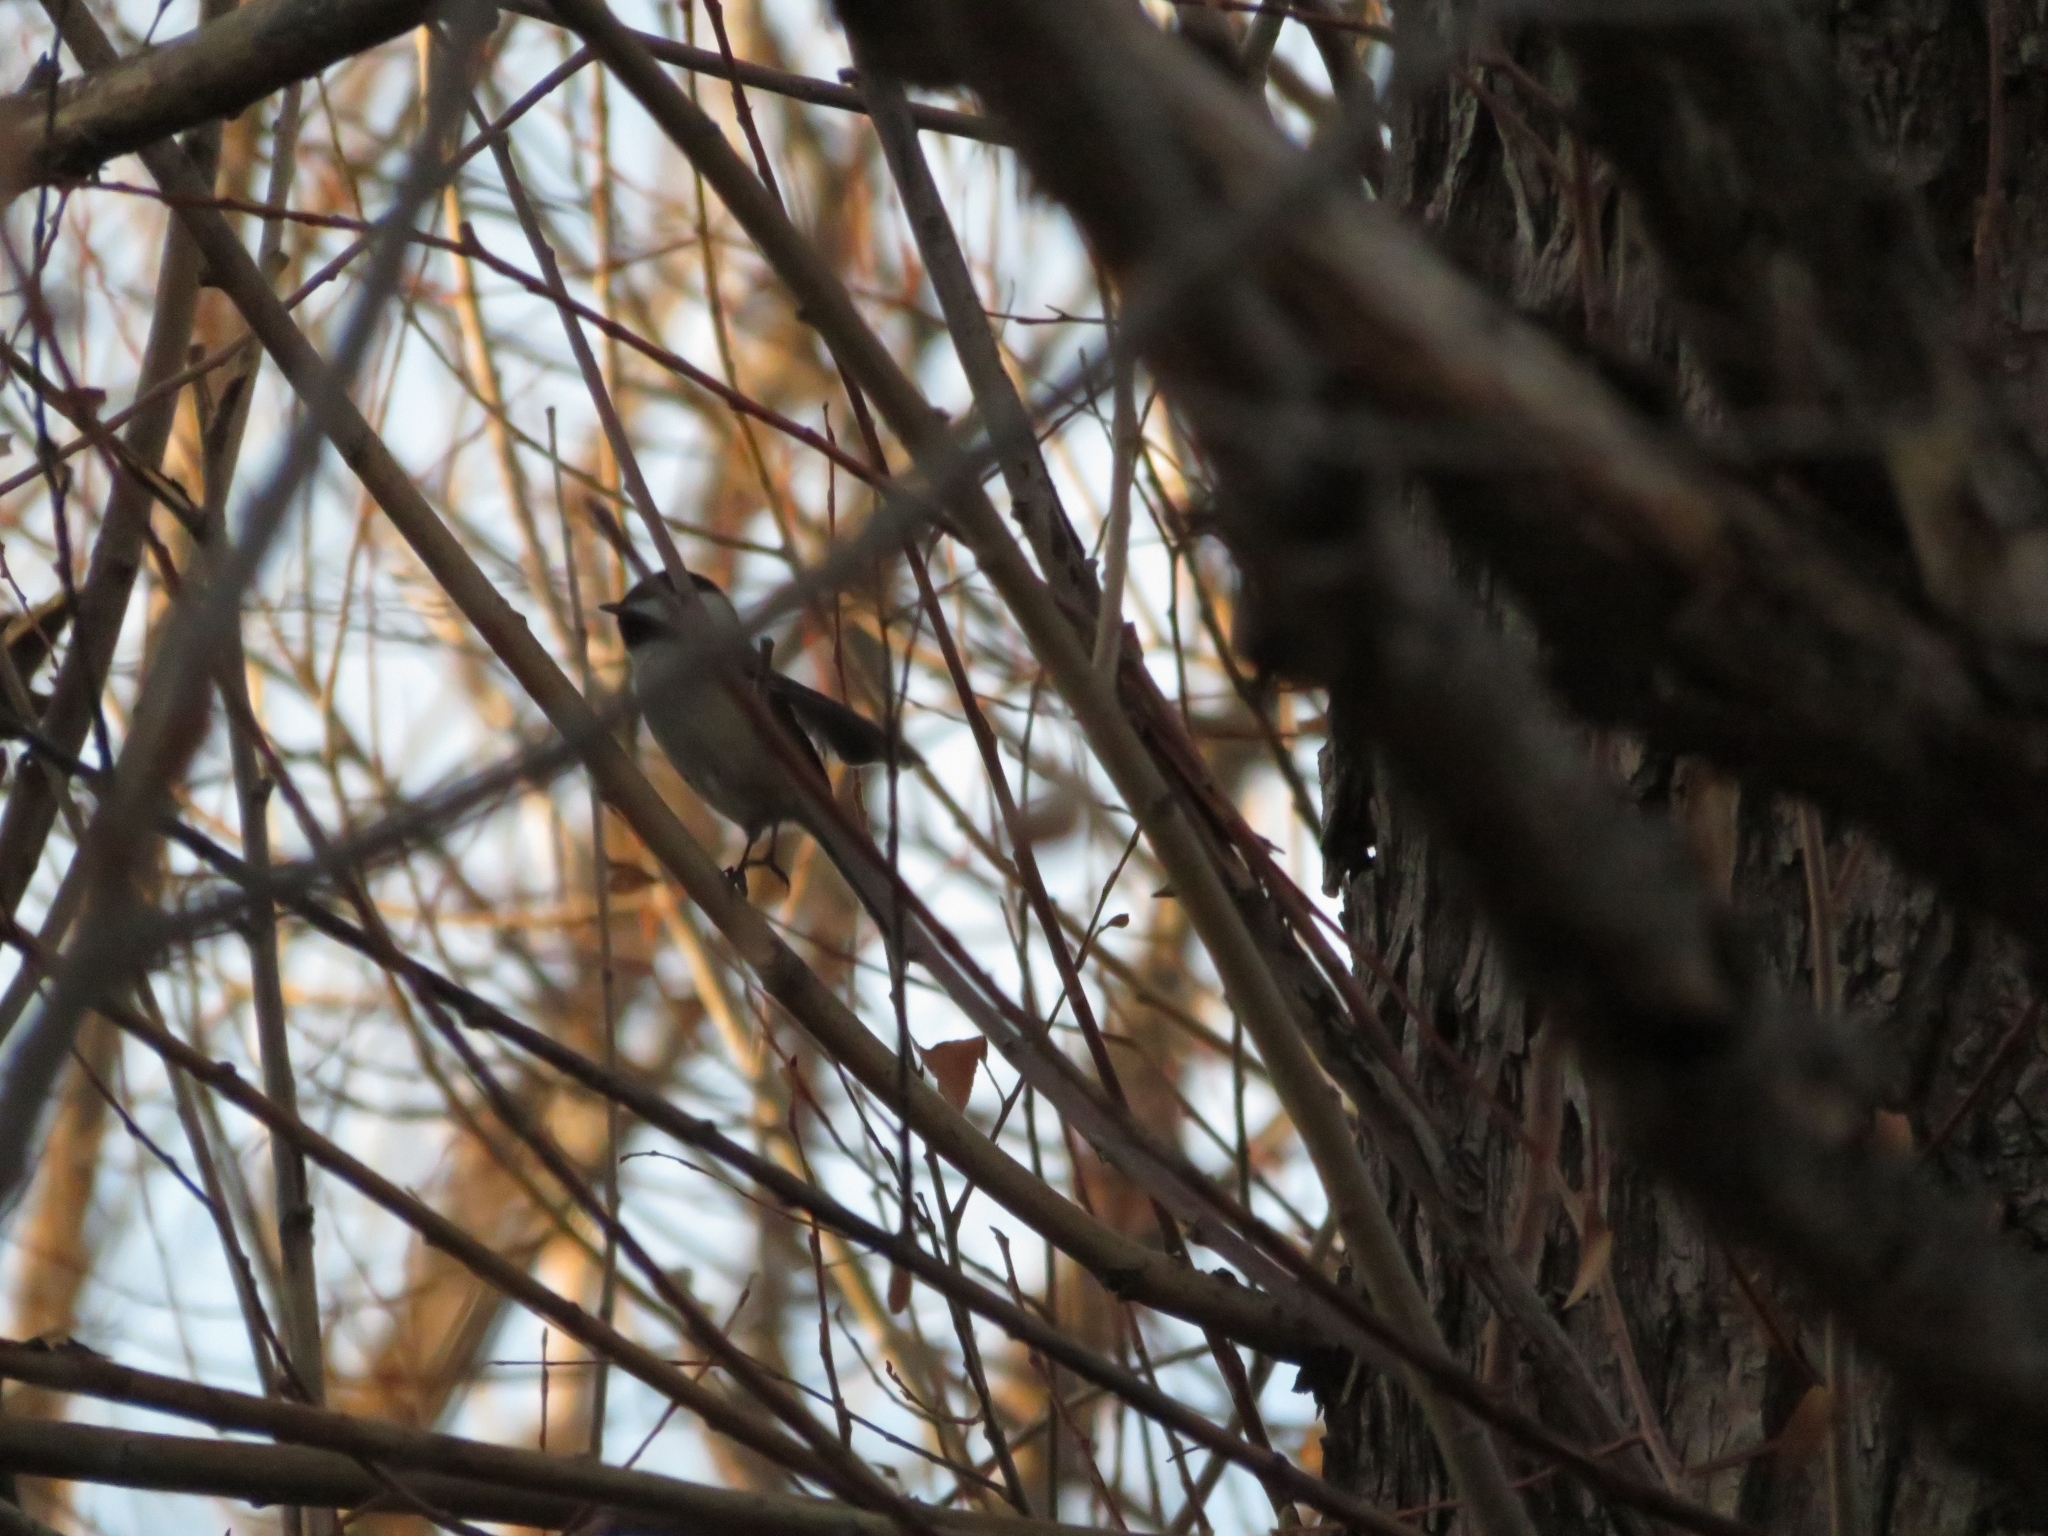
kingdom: Animalia
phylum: Chordata
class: Aves
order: Passeriformes
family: Paridae
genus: Poecile
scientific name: Poecile atricapillus
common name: Black-capped chickadee
